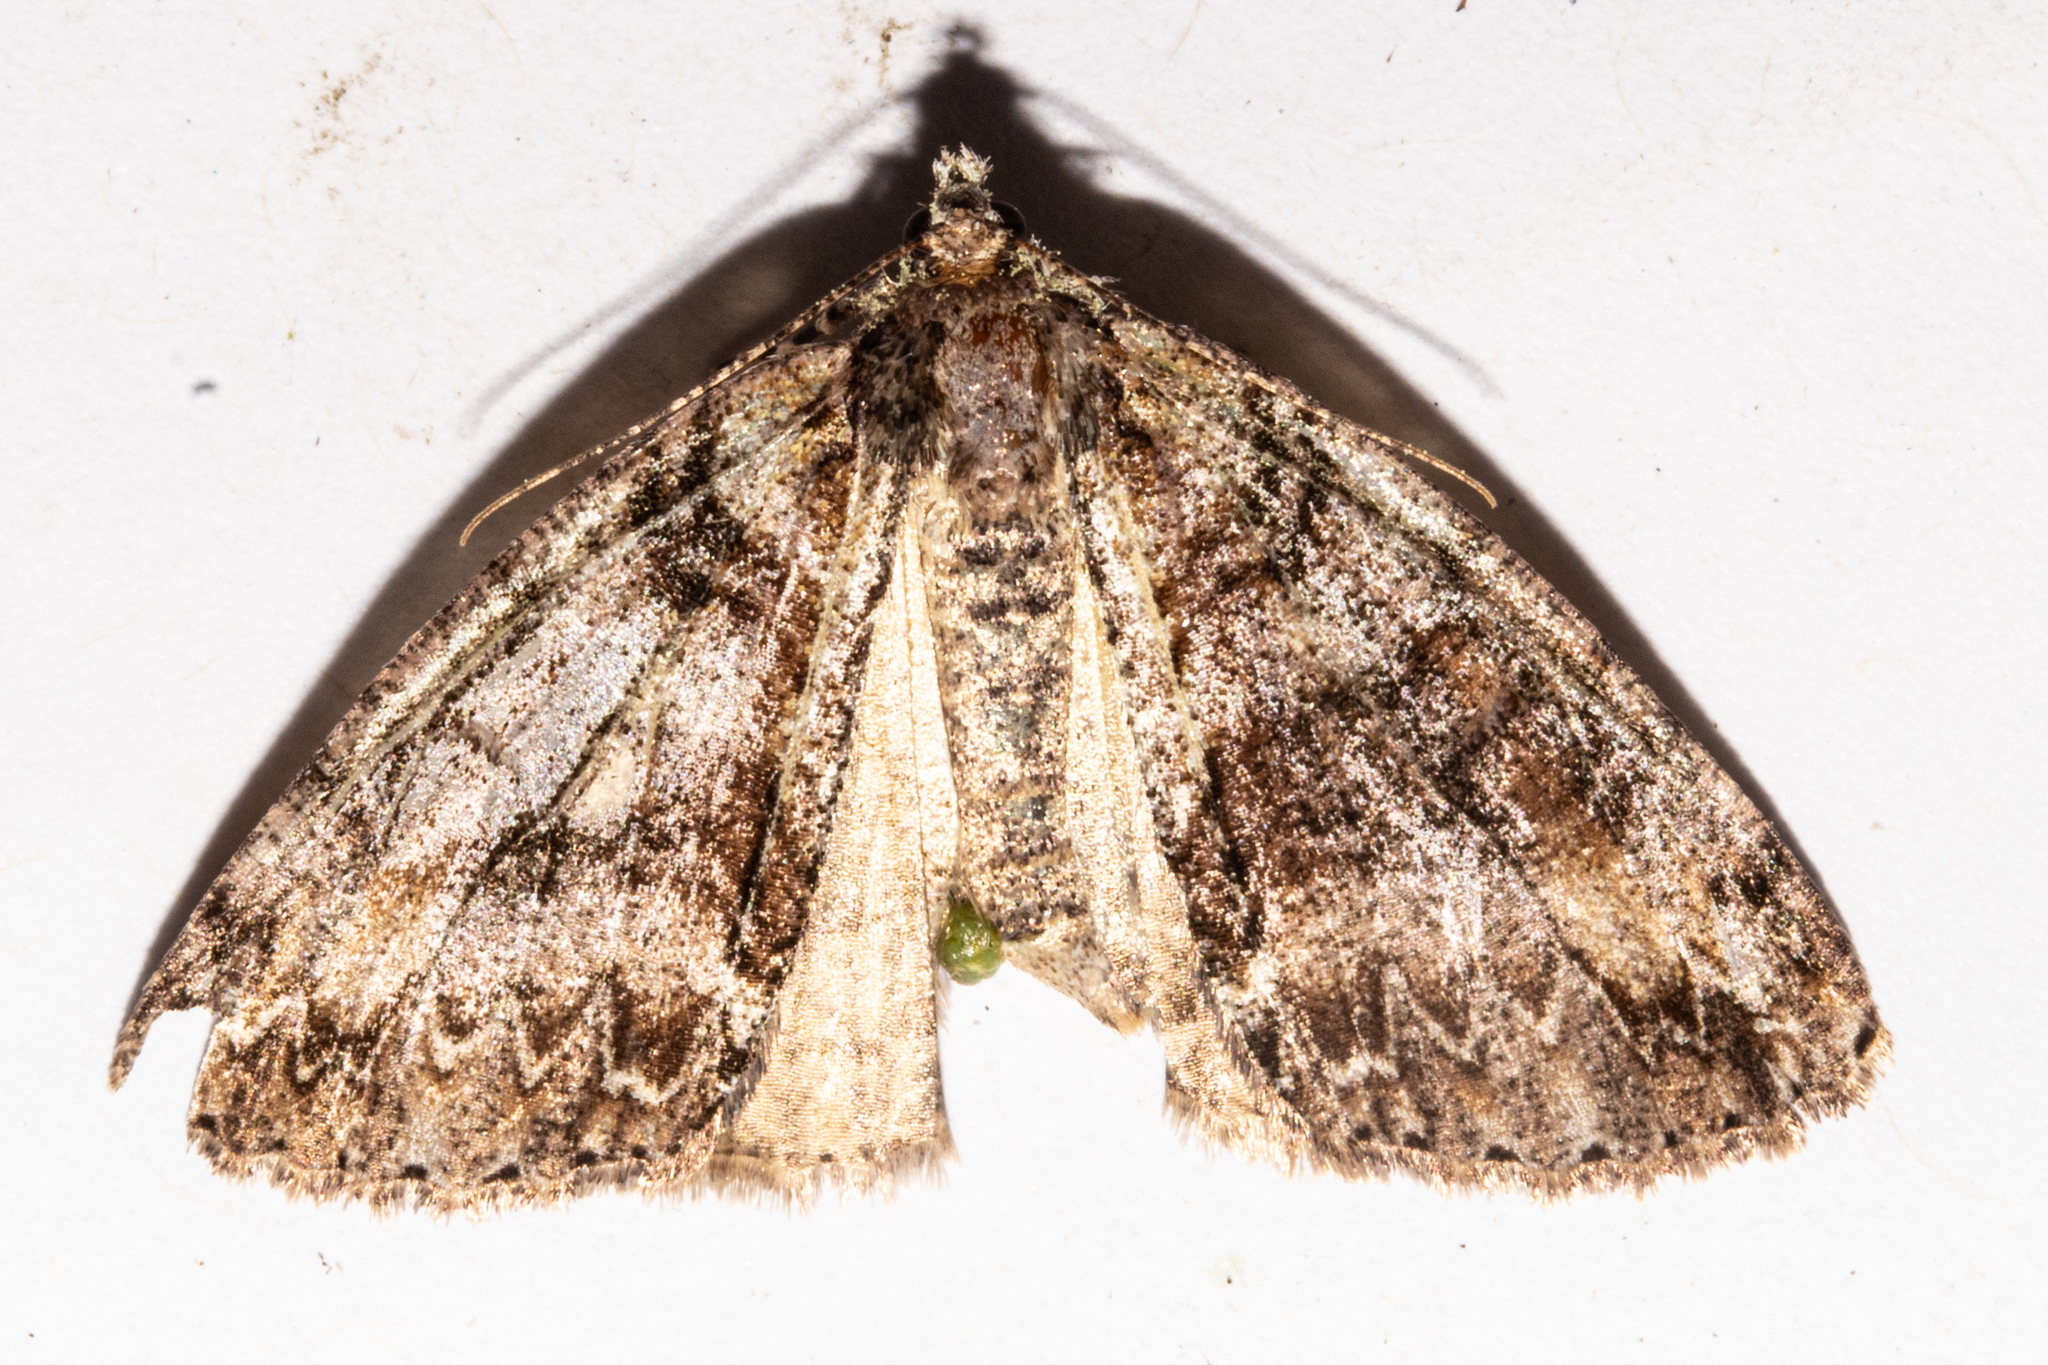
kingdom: Animalia
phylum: Arthropoda
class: Insecta
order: Lepidoptera
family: Geometridae
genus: Pseudocoremia
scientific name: Pseudocoremia suavis
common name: Common forest looper
